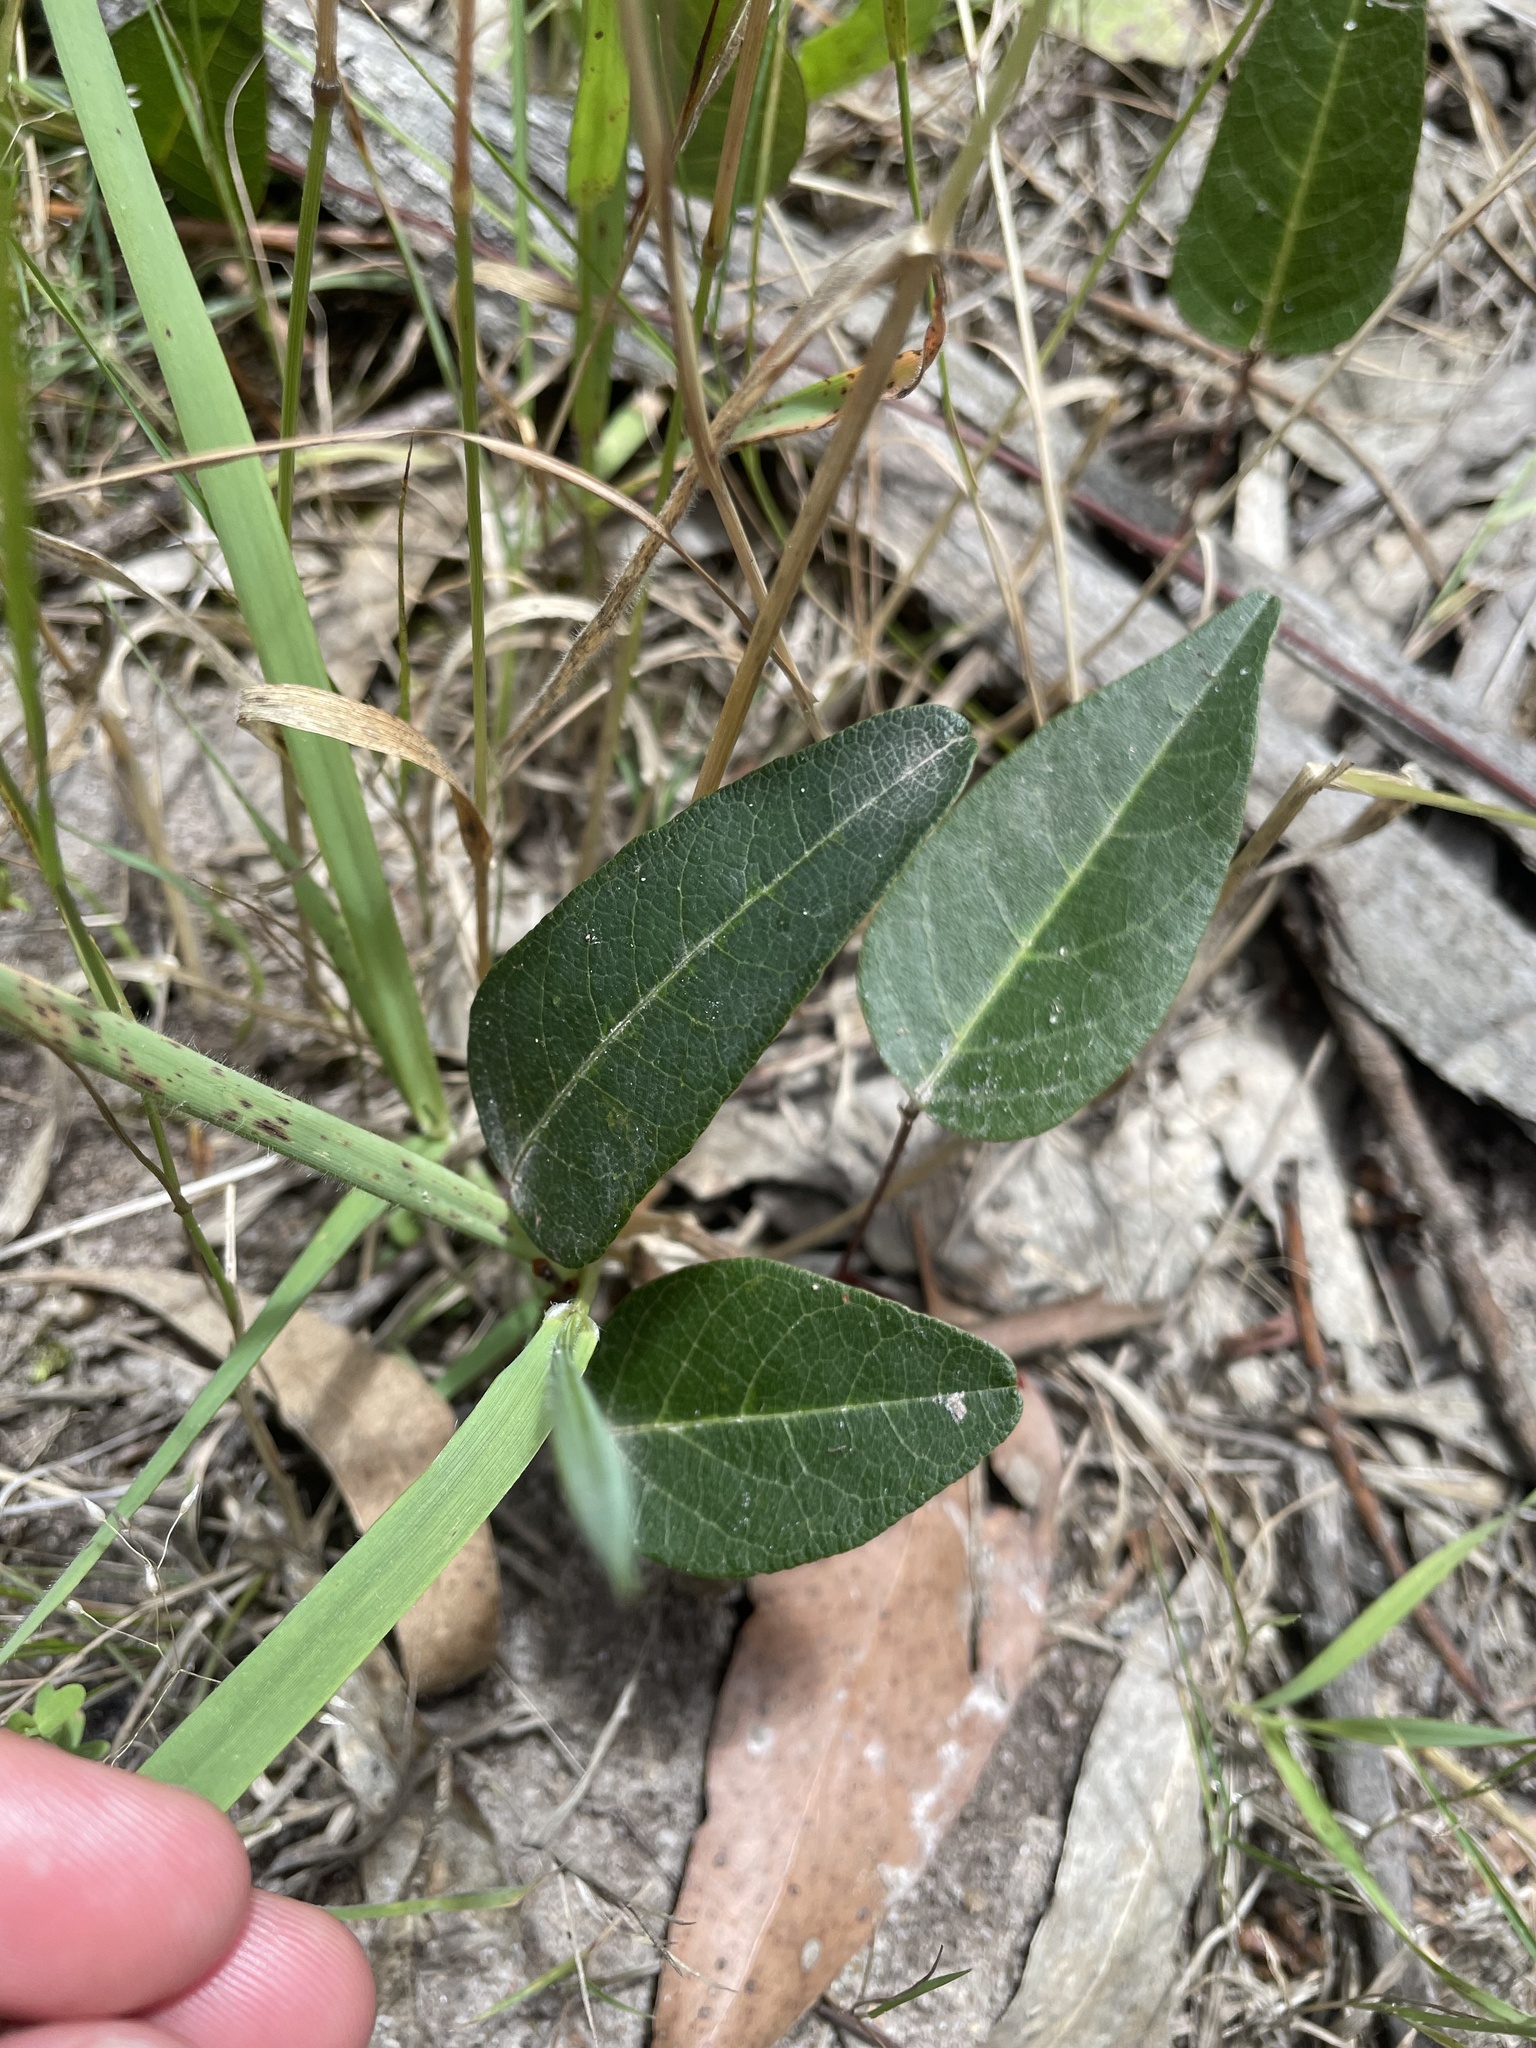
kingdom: Plantae
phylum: Tracheophyta
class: Magnoliopsida
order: Fabales
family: Fabaceae
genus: Hardenbergia
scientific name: Hardenbergia violacea
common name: Coral-pea
